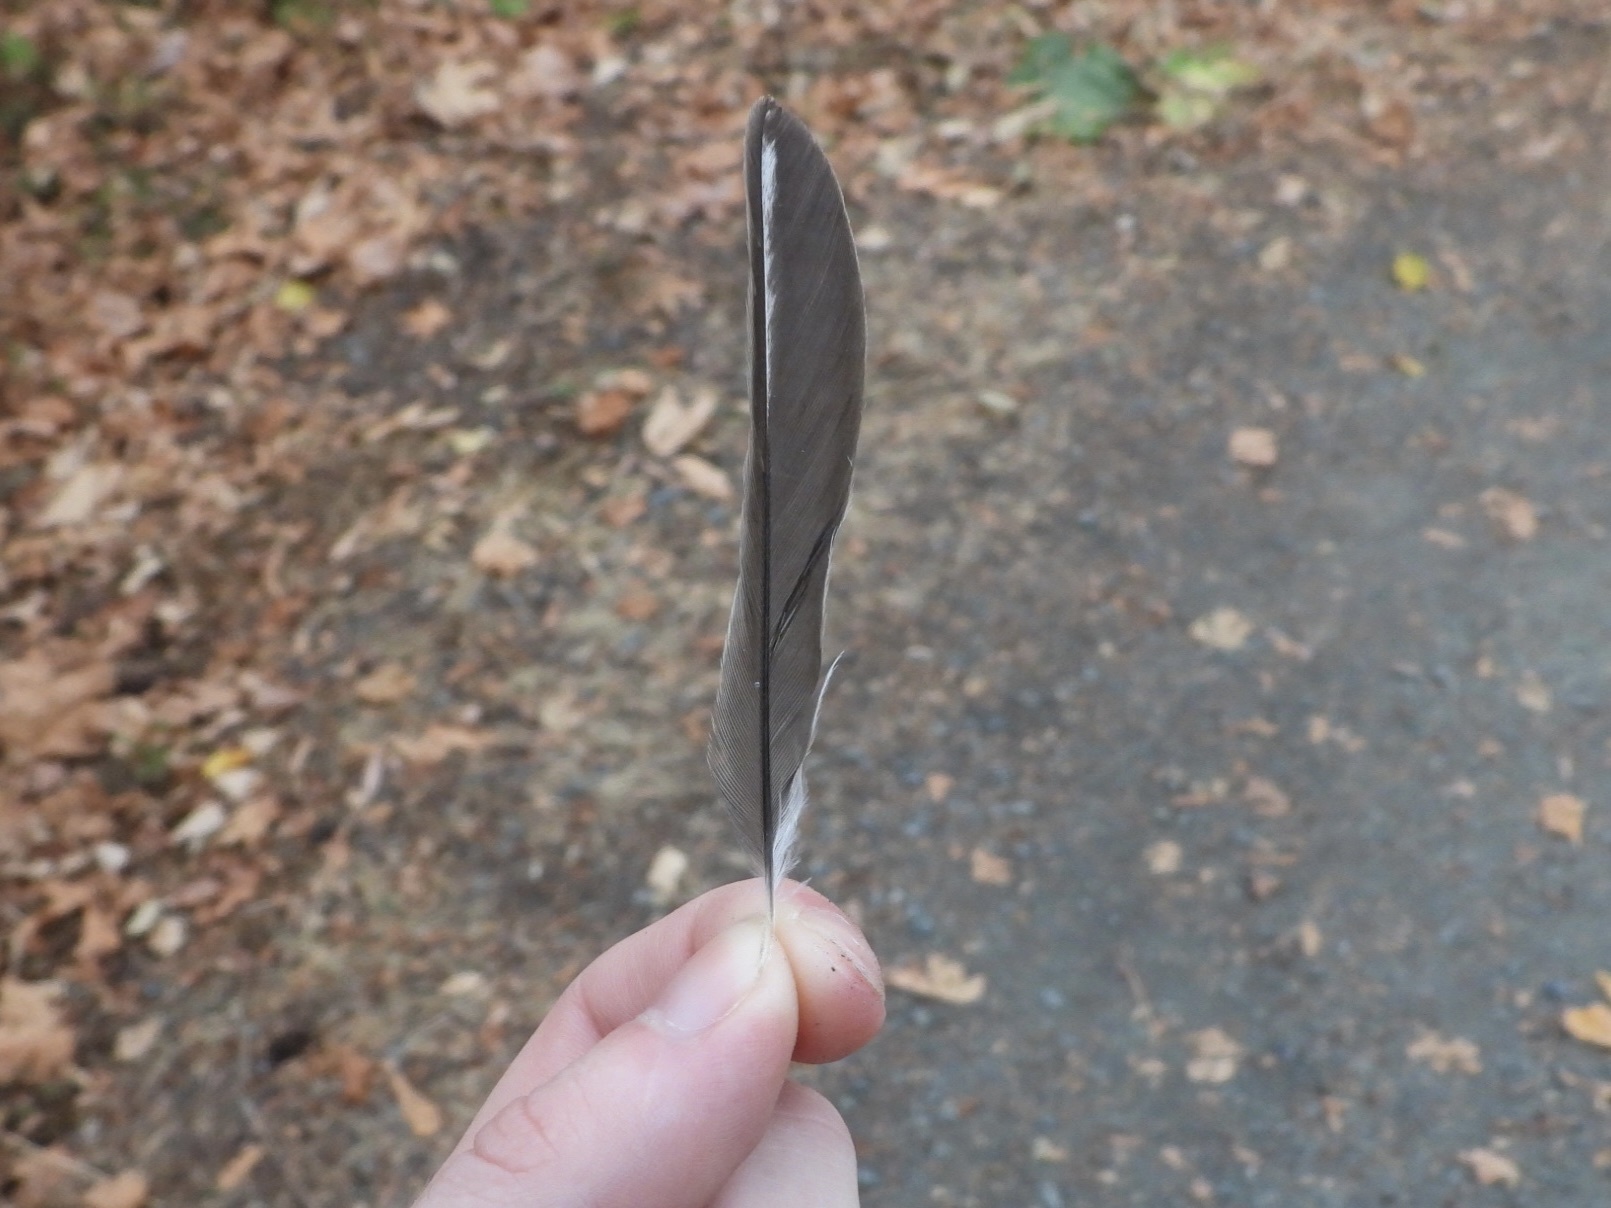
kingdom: Animalia
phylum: Chordata
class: Aves
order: Passeriformes
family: Passerellidae
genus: Junco
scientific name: Junco hyemalis
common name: Dark-eyed junco
